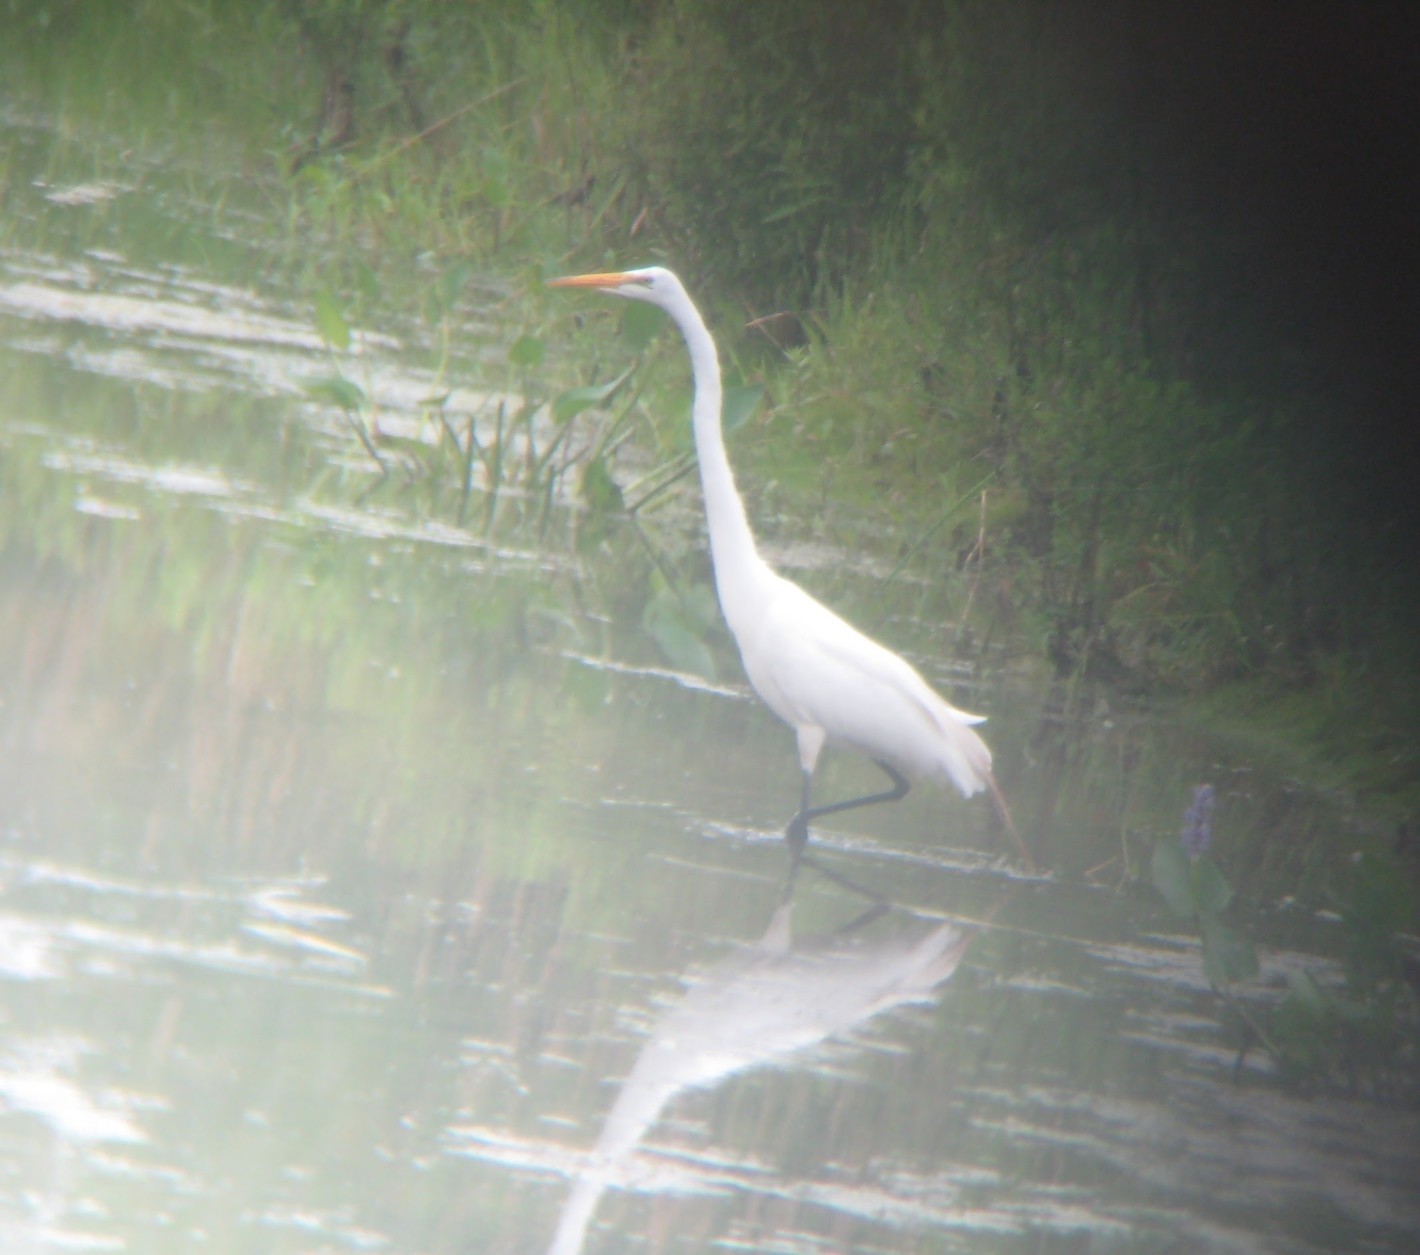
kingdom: Animalia
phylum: Chordata
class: Aves
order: Pelecaniformes
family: Ardeidae
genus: Ardea
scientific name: Ardea alba
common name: Great egret
